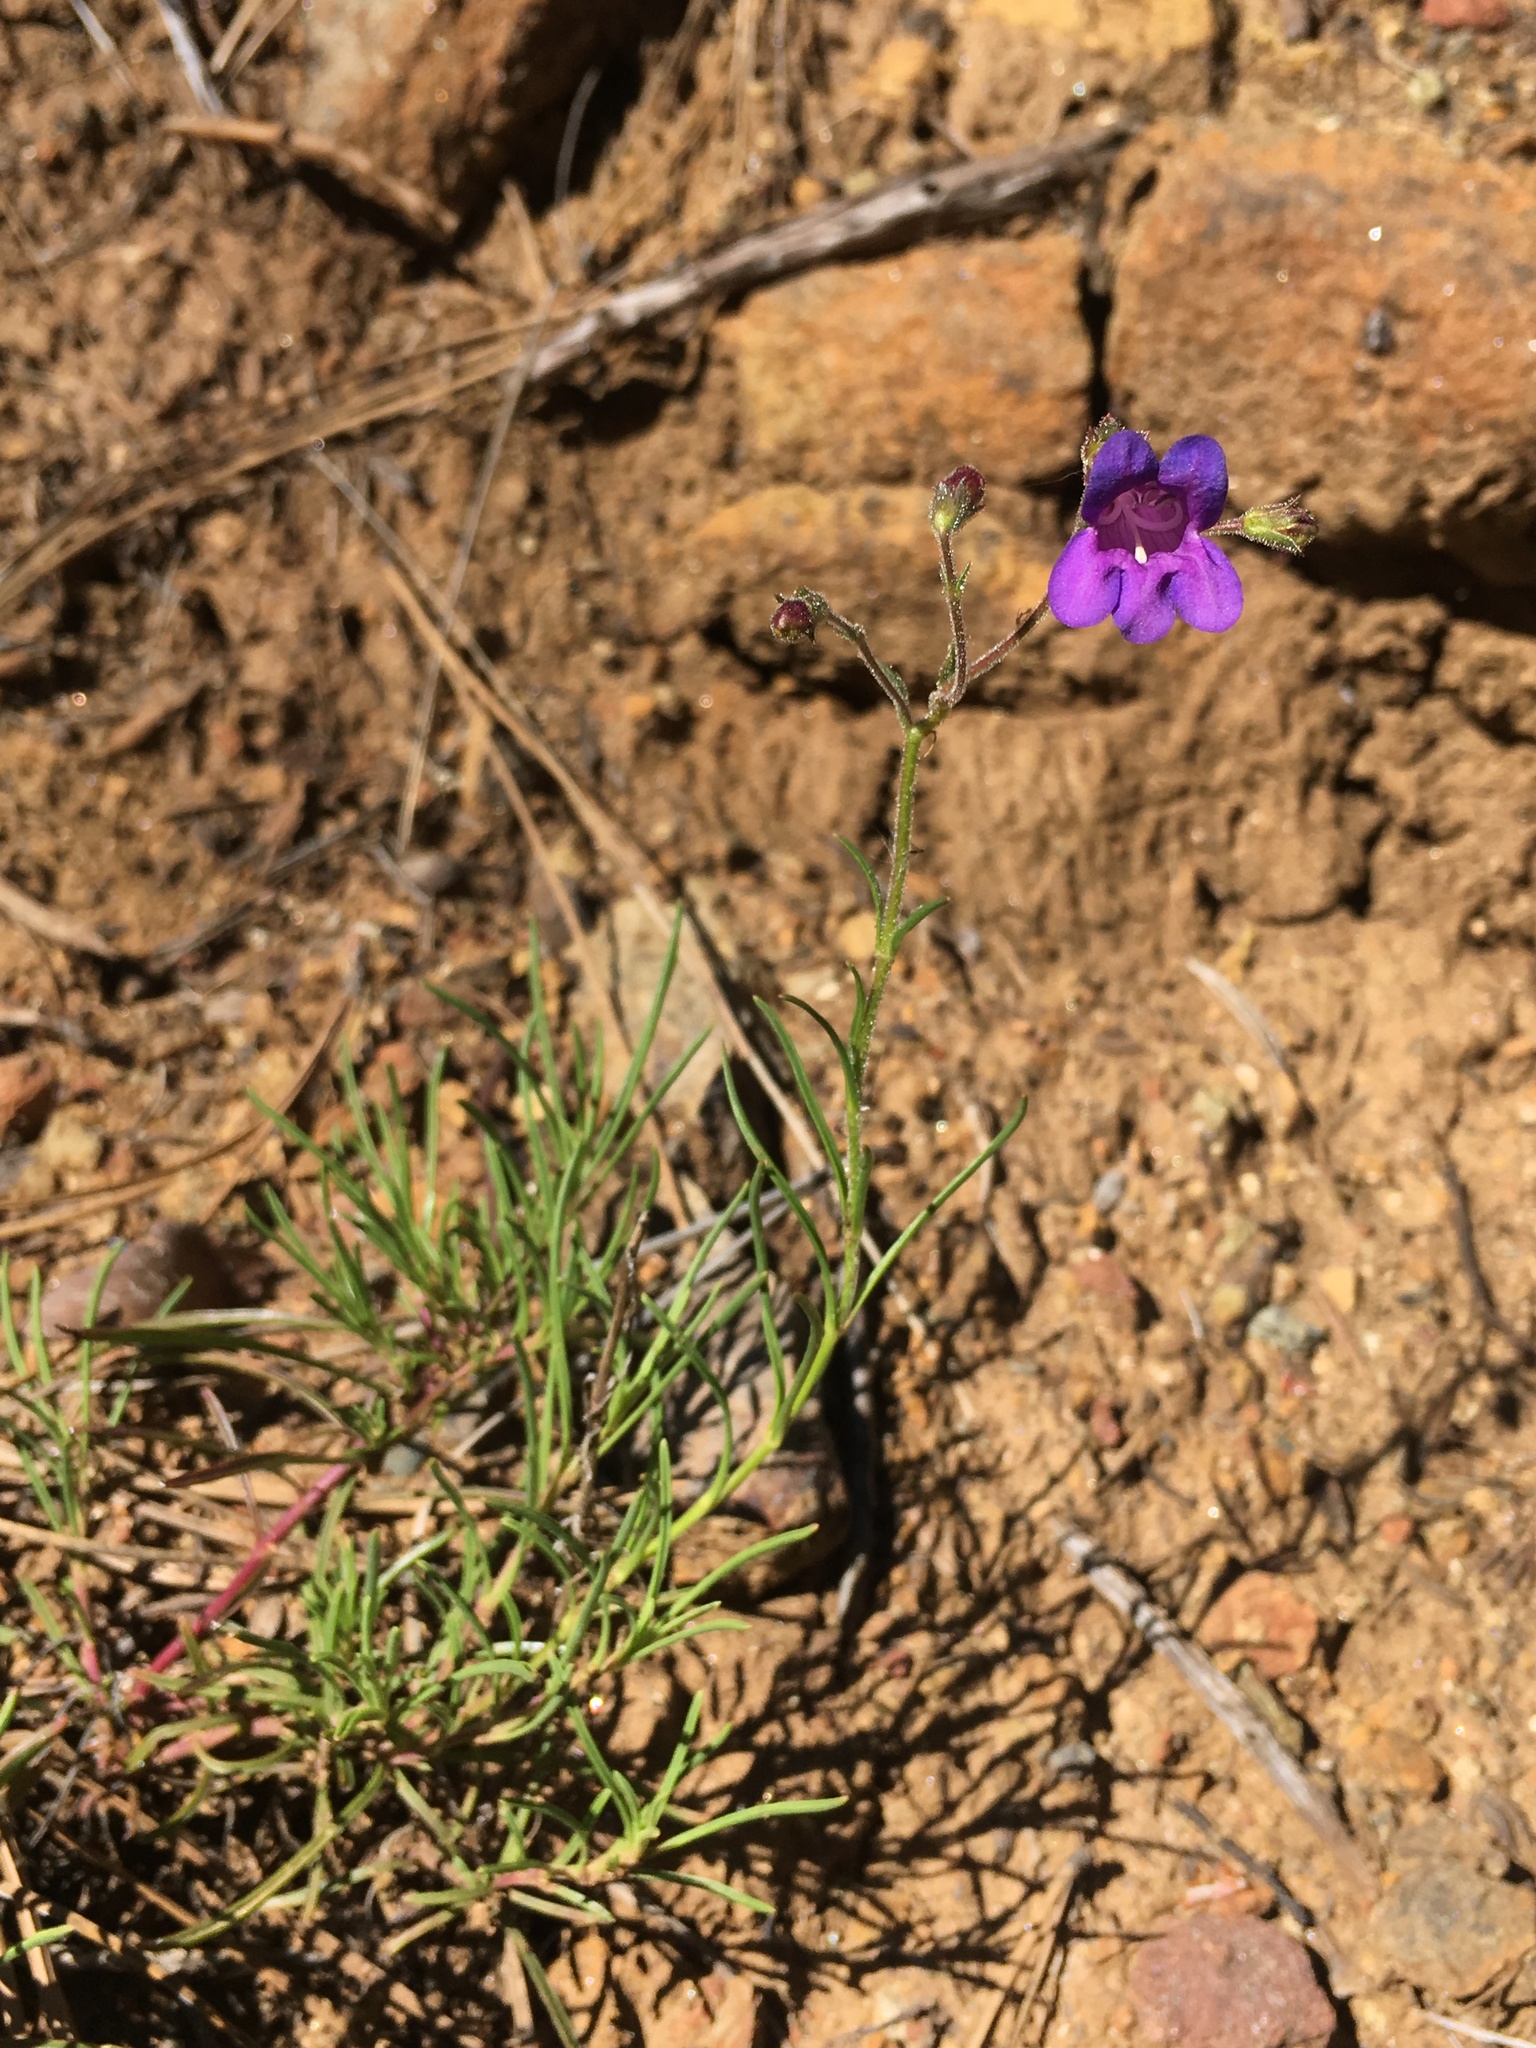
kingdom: Plantae
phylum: Tracheophyta
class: Magnoliopsida
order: Lamiales
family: Plantaginaceae
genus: Penstemon
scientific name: Penstemon filiformis
